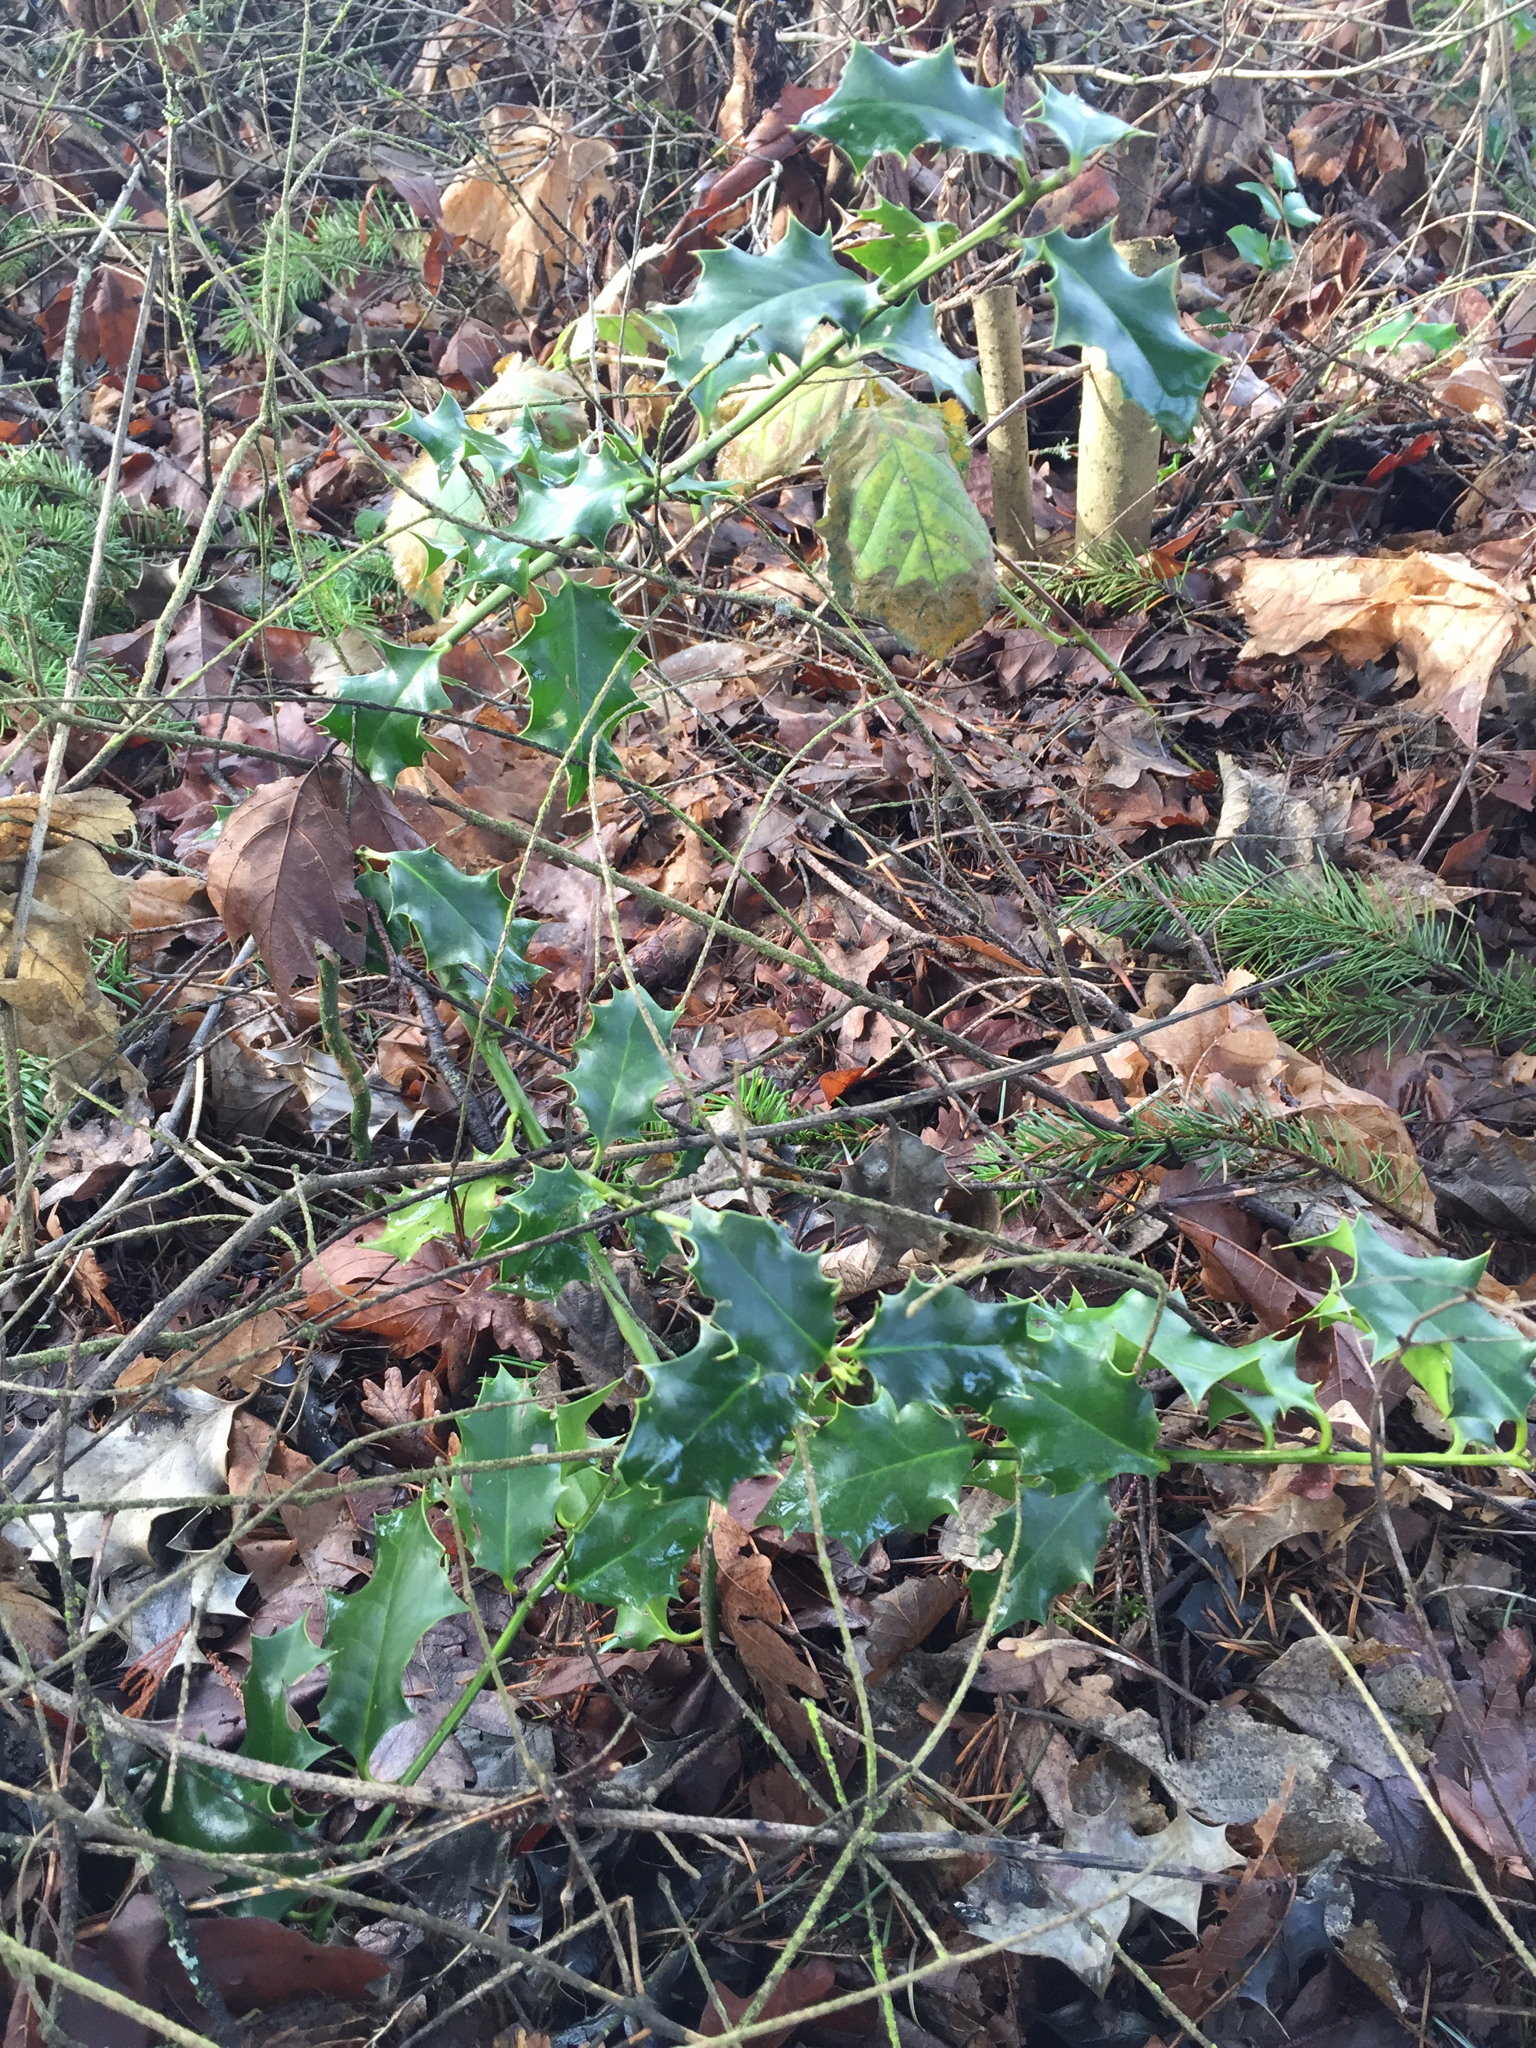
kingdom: Plantae
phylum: Tracheophyta
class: Magnoliopsida
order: Aquifoliales
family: Aquifoliaceae
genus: Ilex
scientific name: Ilex aquifolium
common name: English holly
